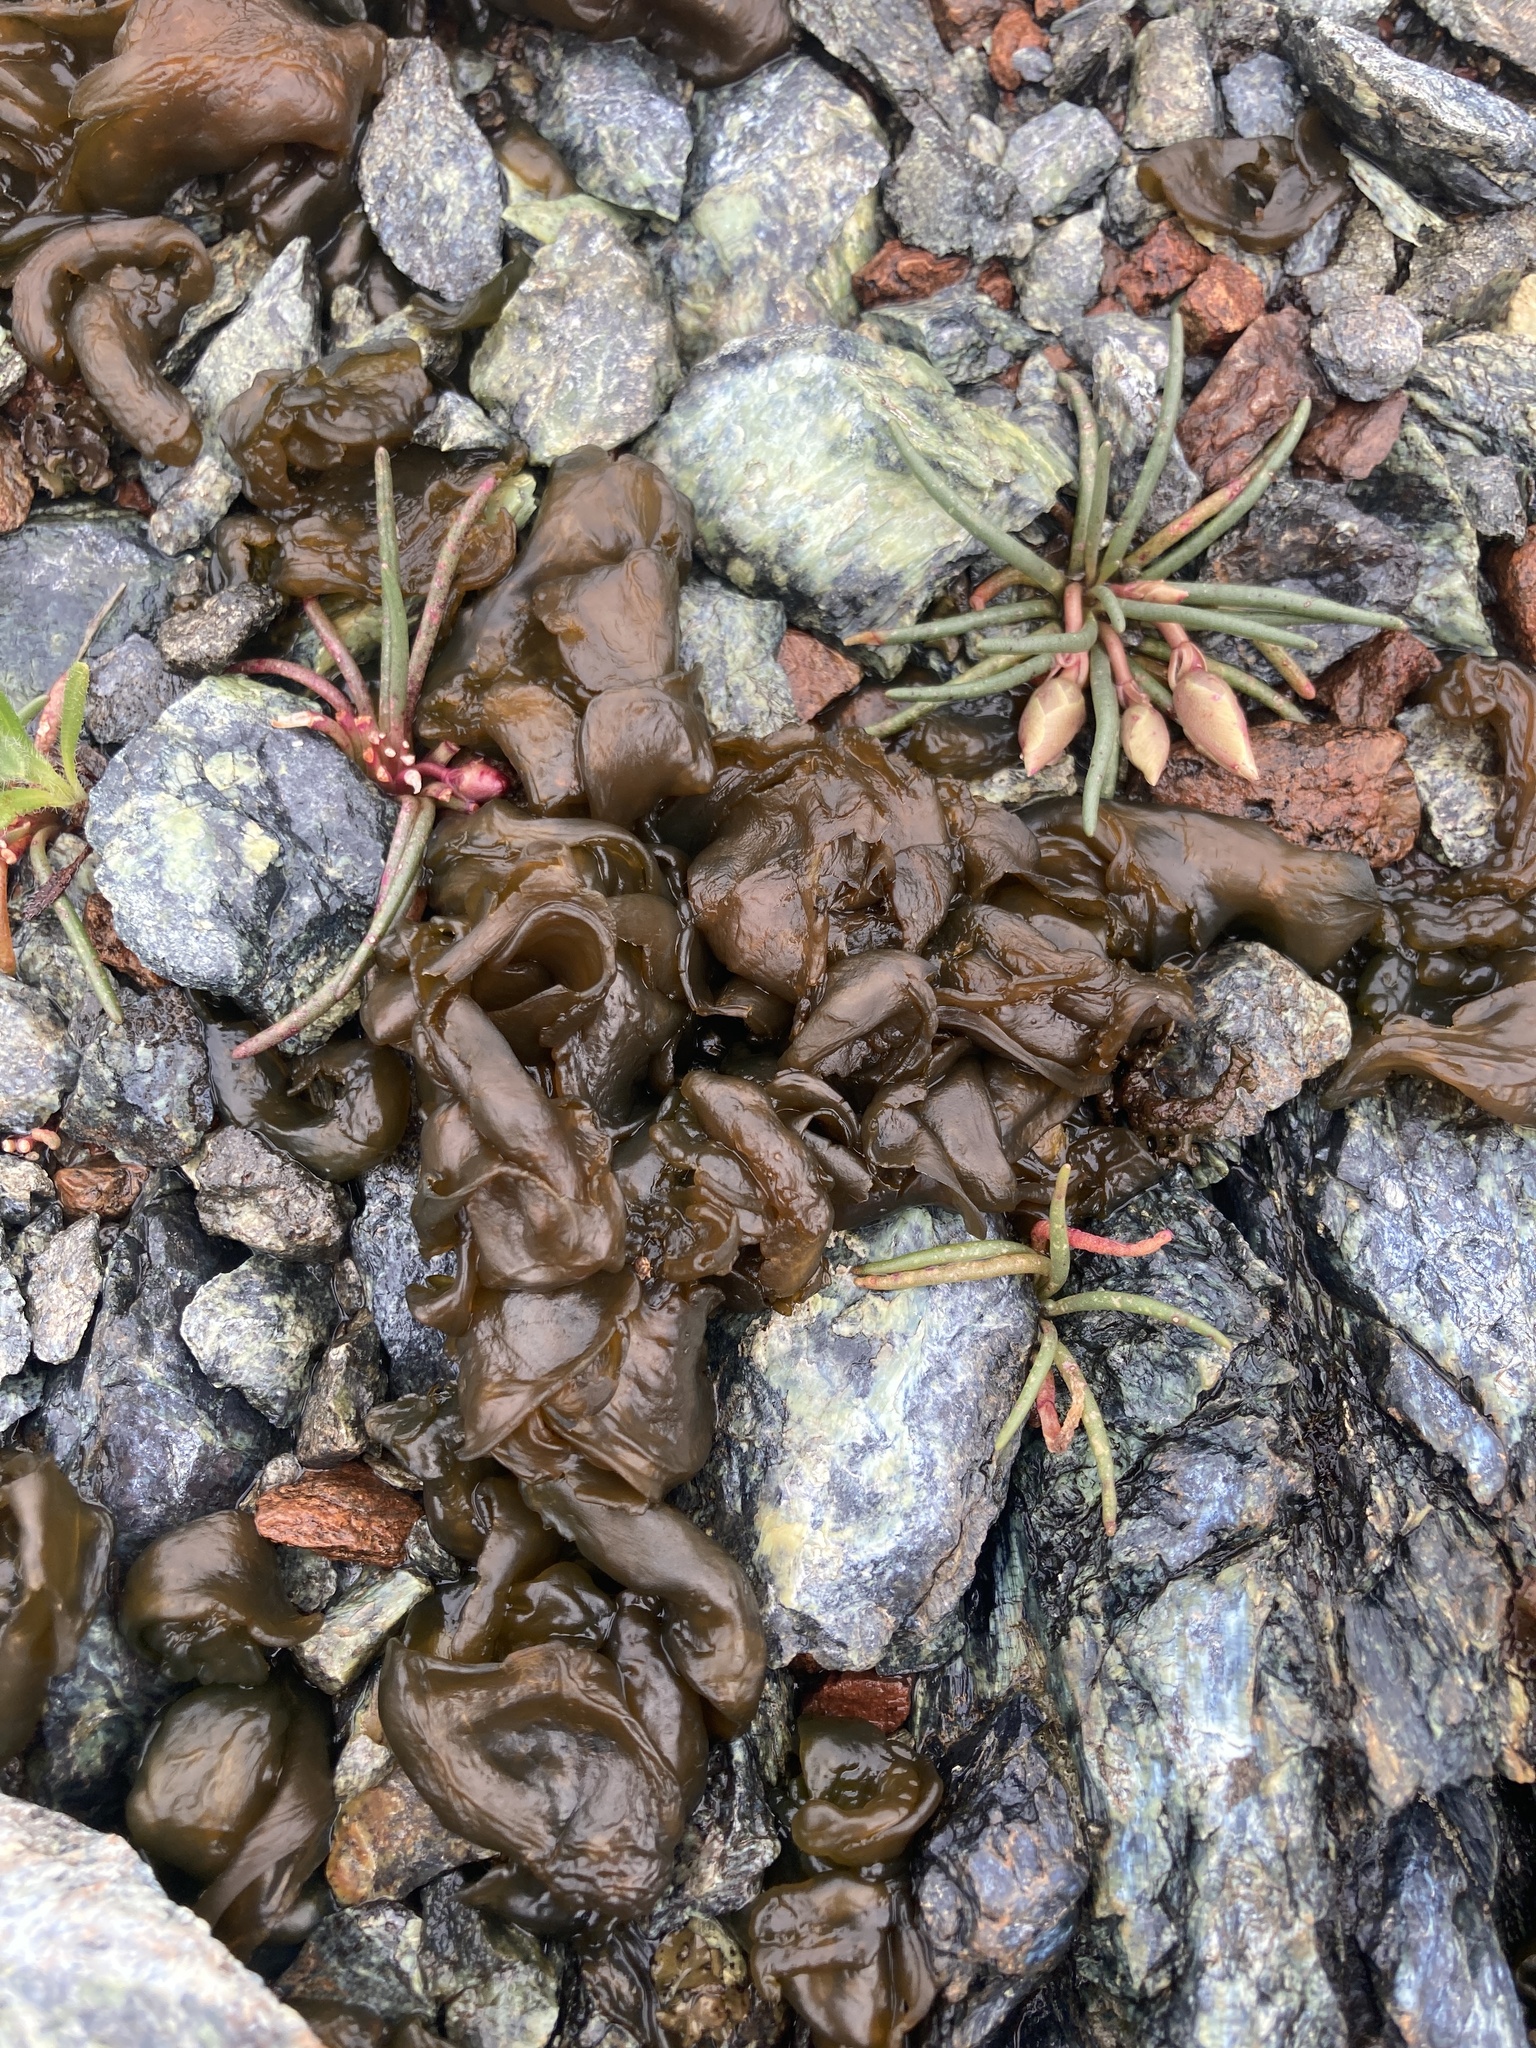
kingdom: Plantae
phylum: Tracheophyta
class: Magnoliopsida
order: Caryophyllales
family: Montiaceae
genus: Lewisia
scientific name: Lewisia rediviva
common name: Bitter-root
